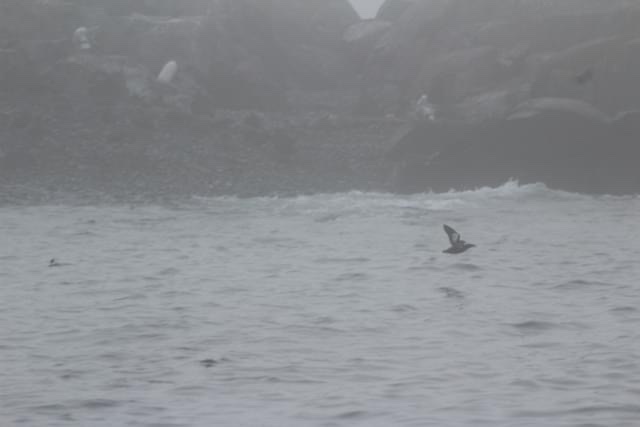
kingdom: Animalia
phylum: Chordata
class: Aves
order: Charadriiformes
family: Alcidae
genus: Cepphus
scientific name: Cepphus grylle
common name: Black guillemot
